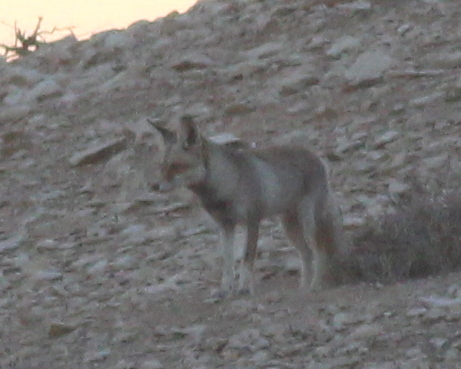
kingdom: Animalia
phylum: Chordata
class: Mammalia
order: Carnivora
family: Canidae
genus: Vulpes
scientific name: Vulpes vulpes
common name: Red fox
